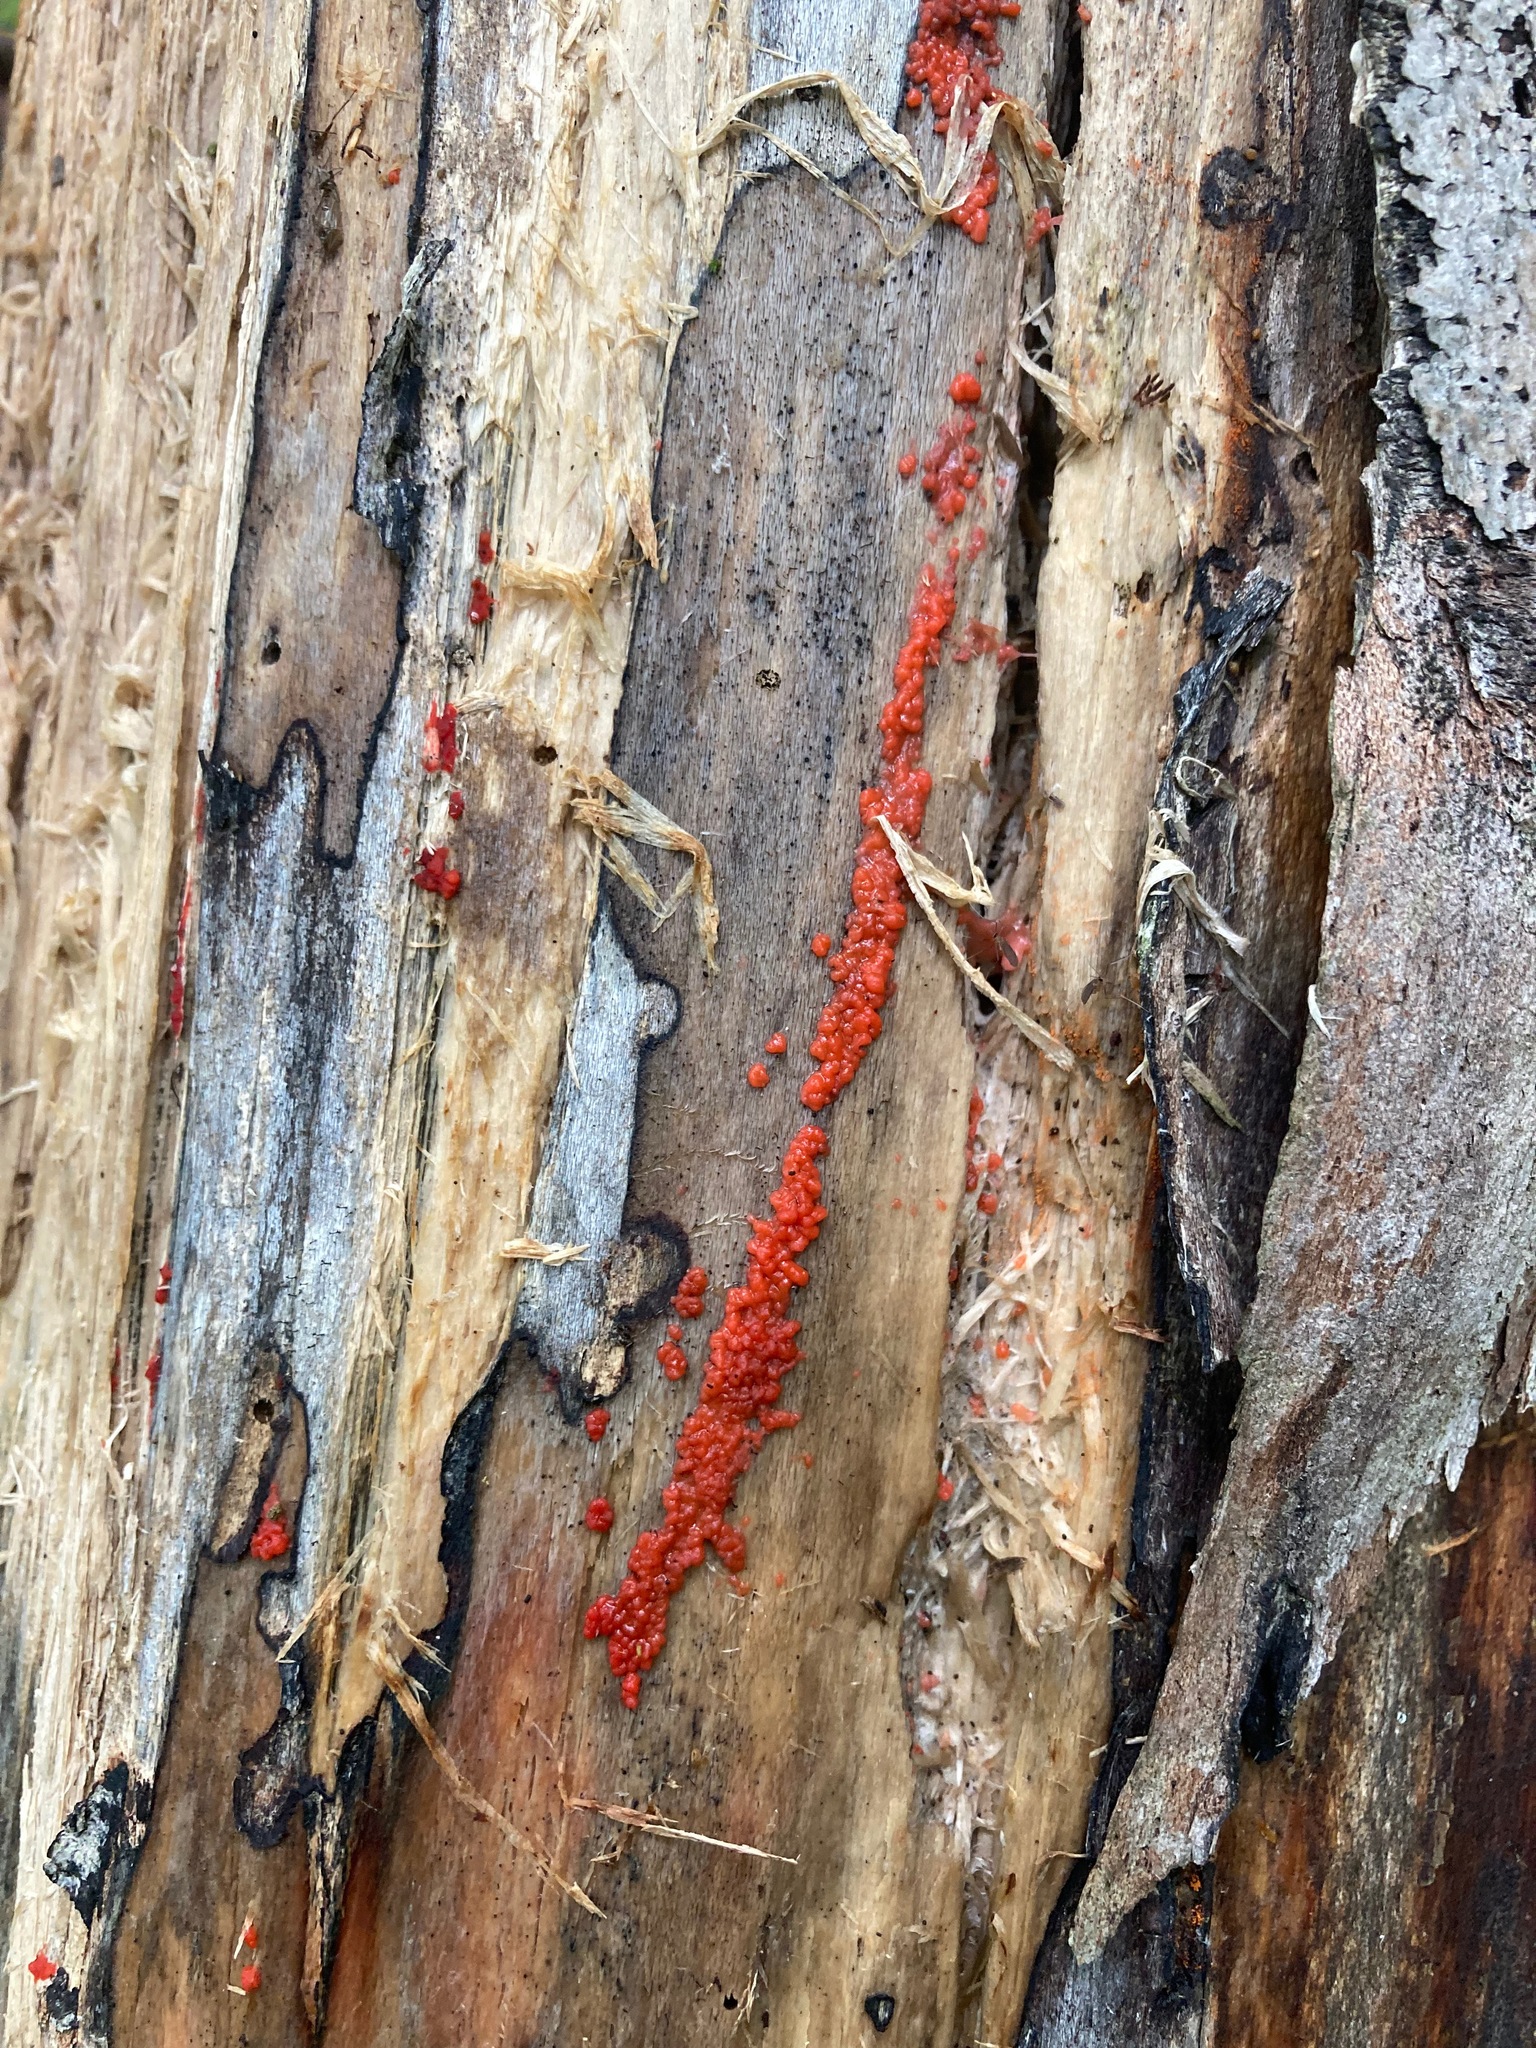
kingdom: Fungi
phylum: Basidiomycota
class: Agaricomycetes
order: Cantharellales
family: Tulasnellaceae
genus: Tulasnella
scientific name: Tulasnella aurantiaca
